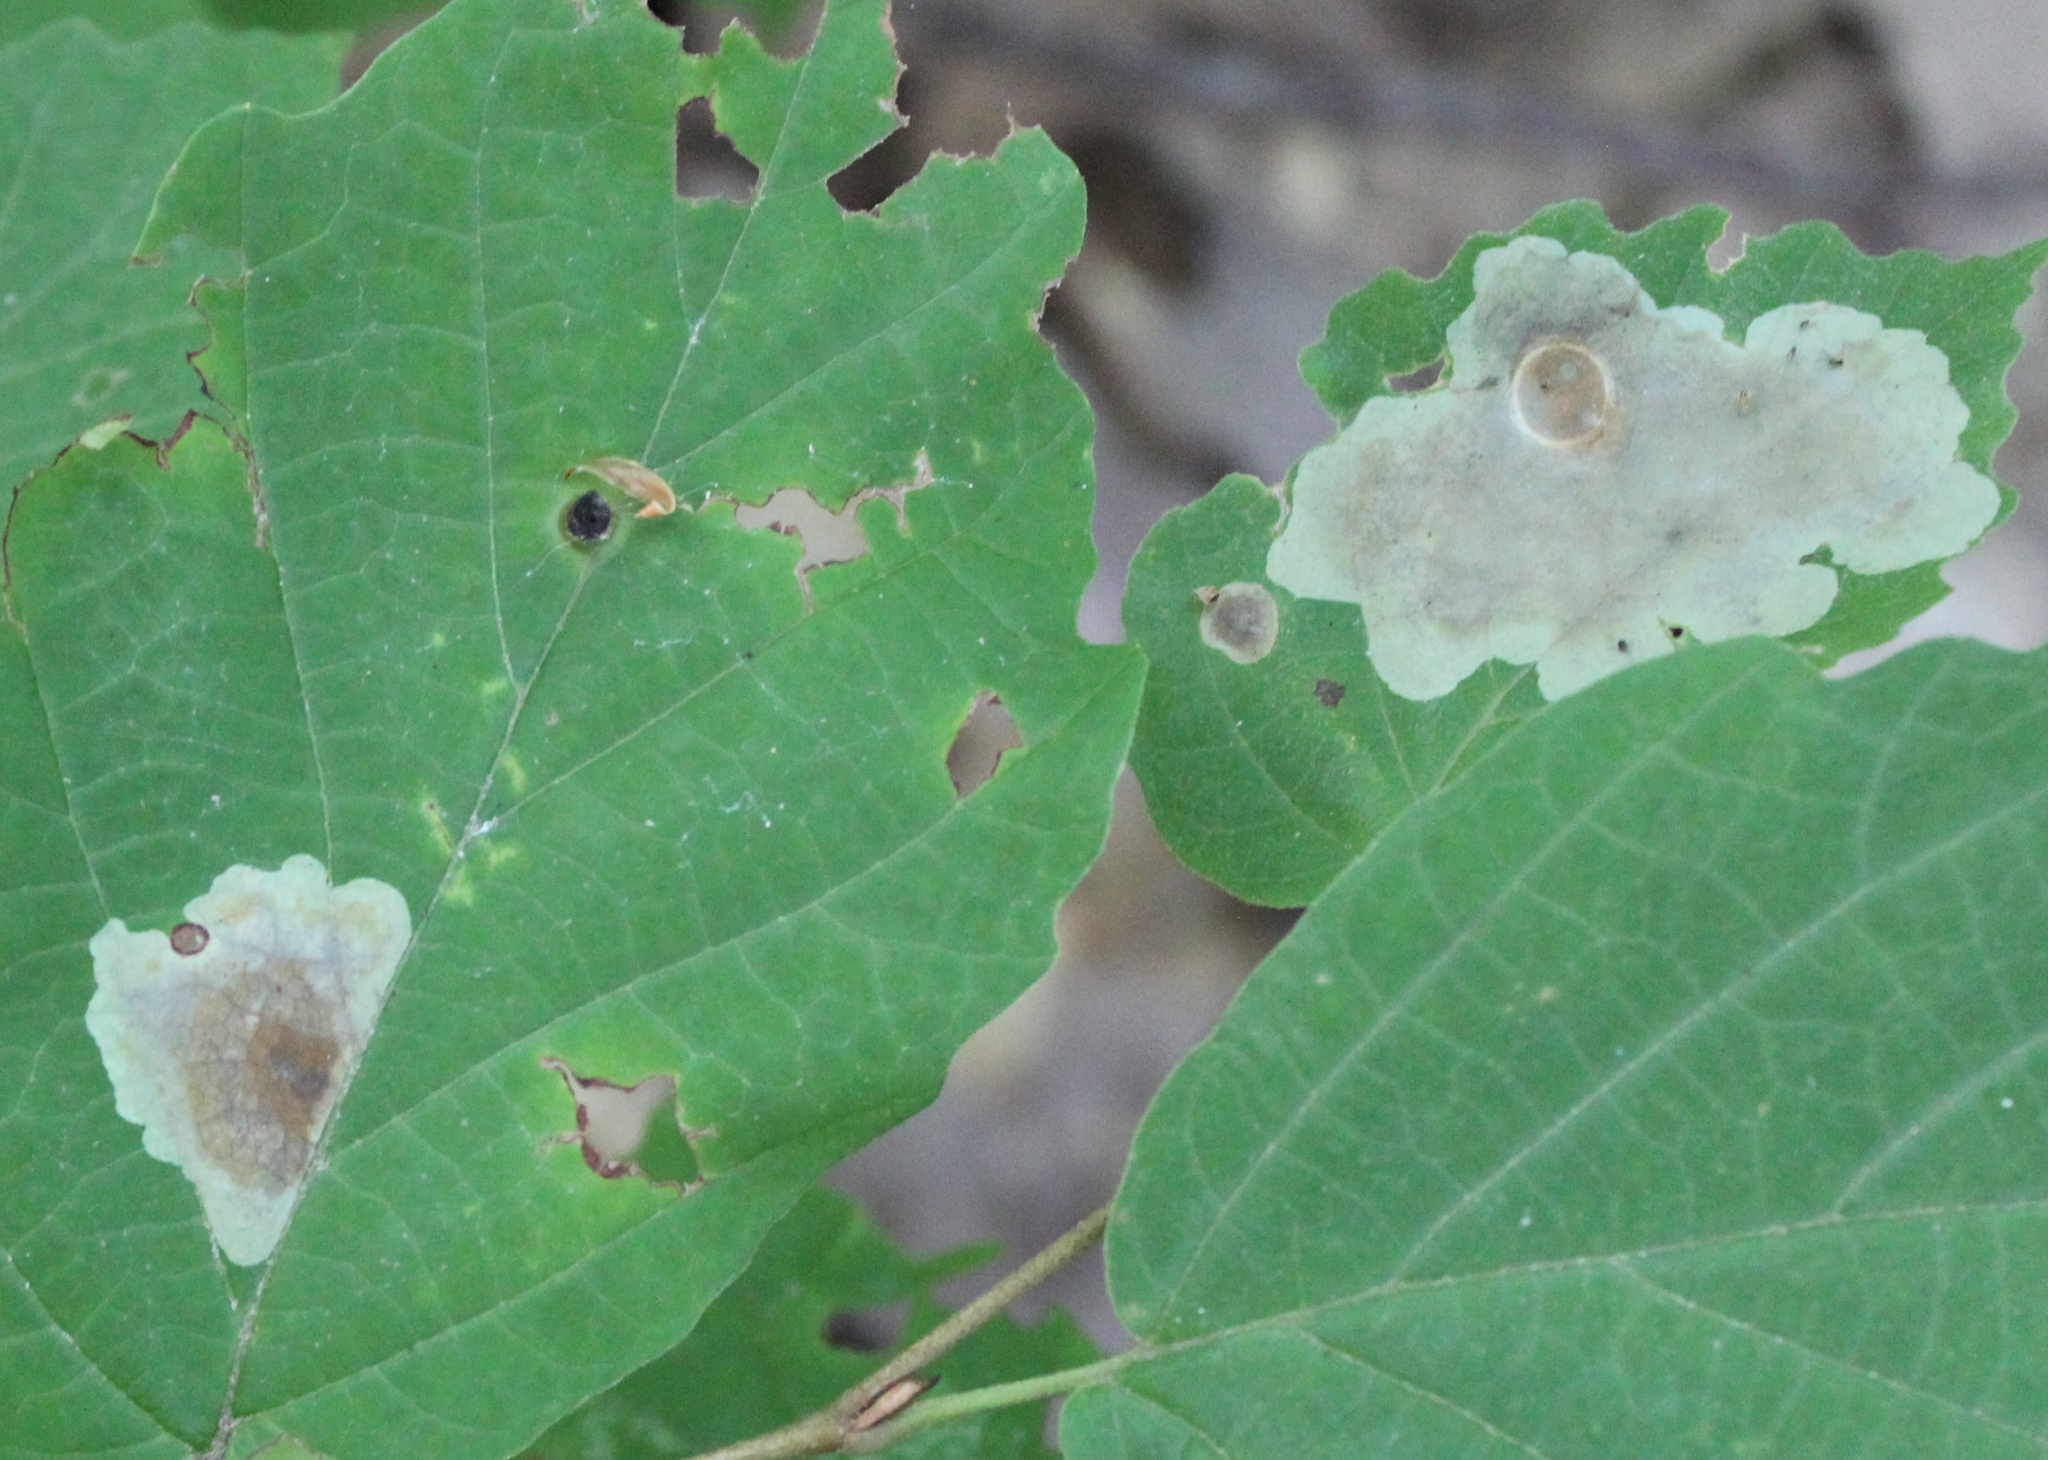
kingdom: Plantae
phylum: Tracheophyta
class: Magnoliopsida
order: Saxifragales
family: Hamamelidaceae
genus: Hamamelis
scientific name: Hamamelis virginiana
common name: Witch-hazel
